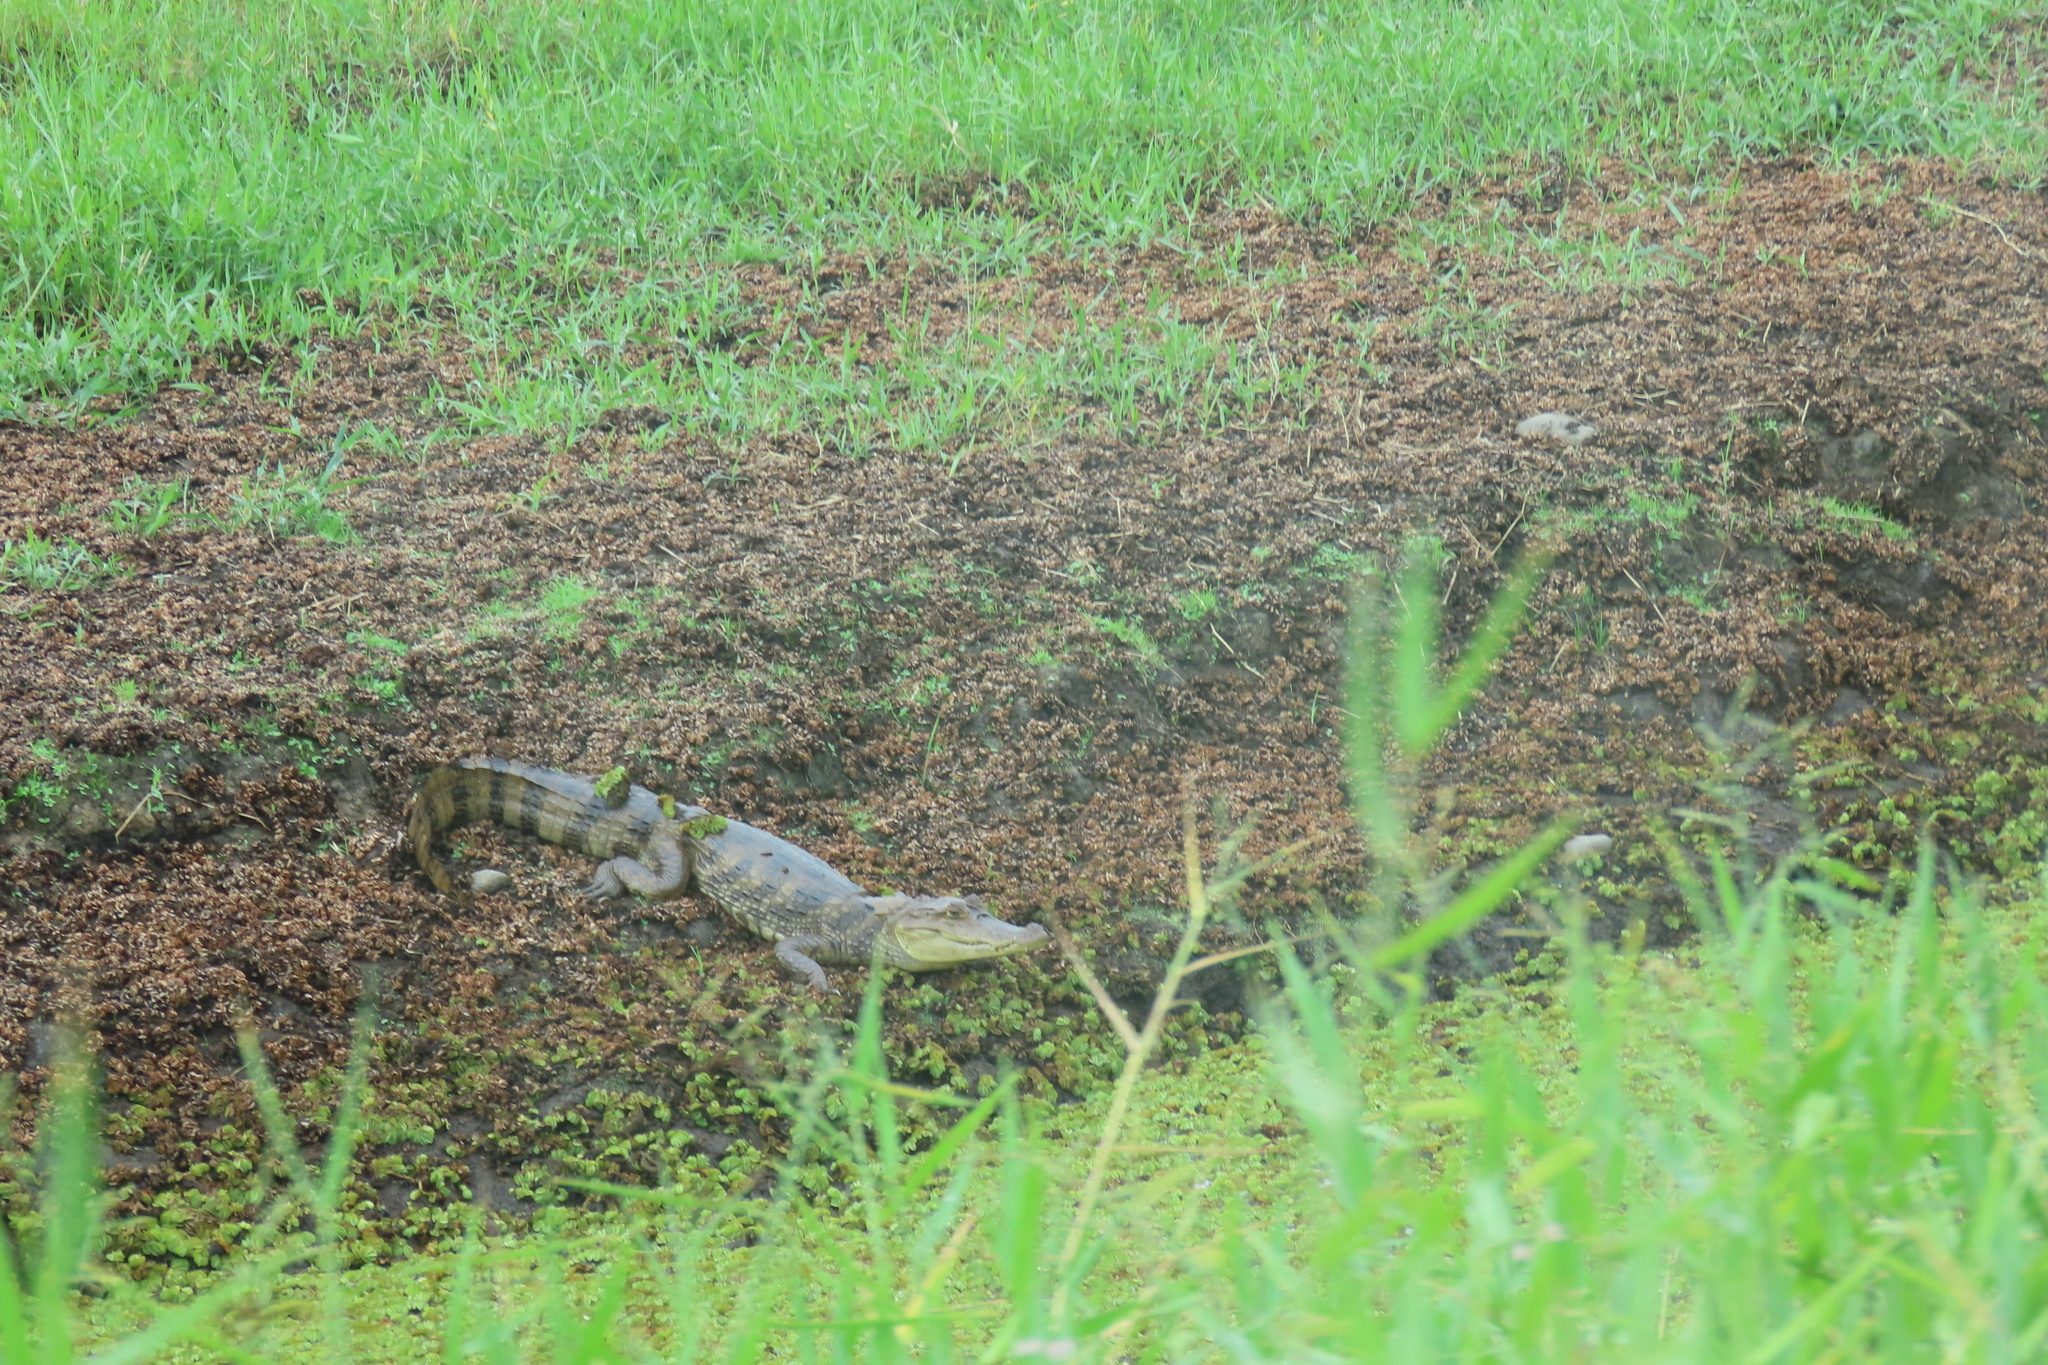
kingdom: Animalia
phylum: Chordata
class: Crocodylia
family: Alligatoridae
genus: Caiman
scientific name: Caiman crocodilus
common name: Common caiman
